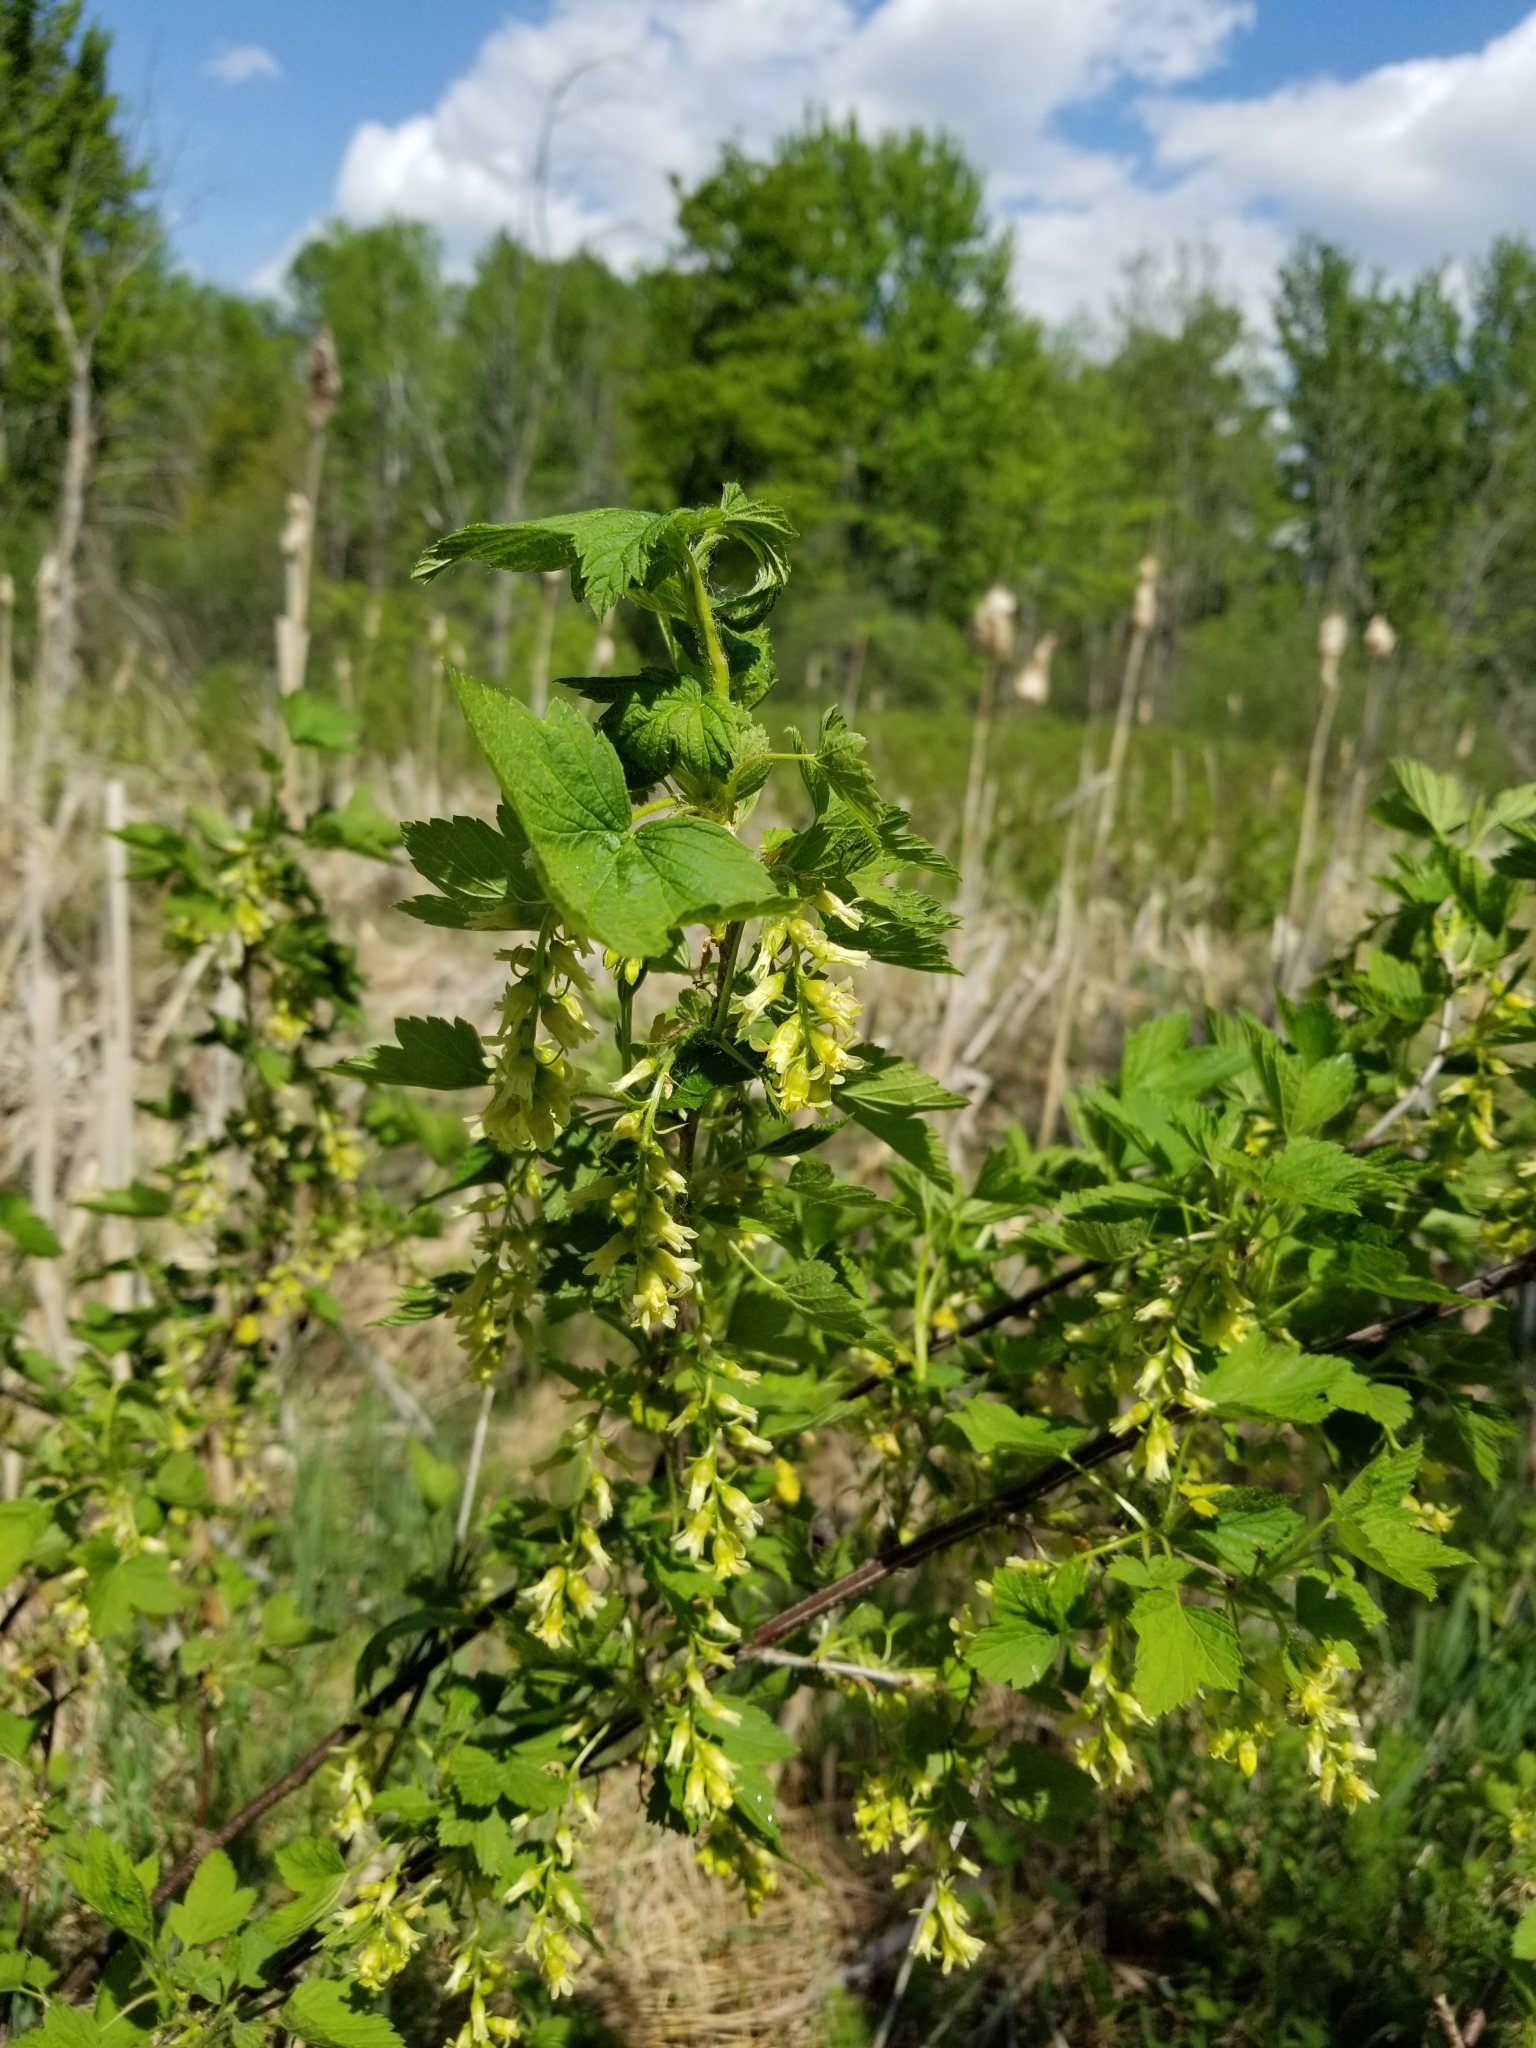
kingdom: Plantae
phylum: Tracheophyta
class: Magnoliopsida
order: Saxifragales
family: Grossulariaceae
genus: Ribes
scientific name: Ribes americanum
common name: American black currant
